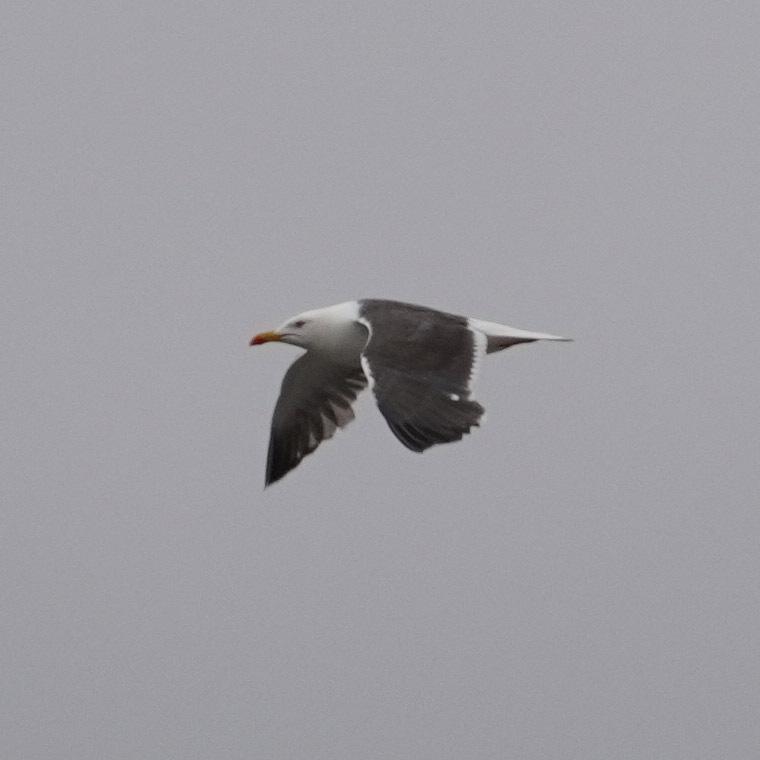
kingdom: Animalia
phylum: Chordata
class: Aves
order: Charadriiformes
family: Laridae
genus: Larus
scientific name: Larus fuscus
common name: Lesser black-backed gull
